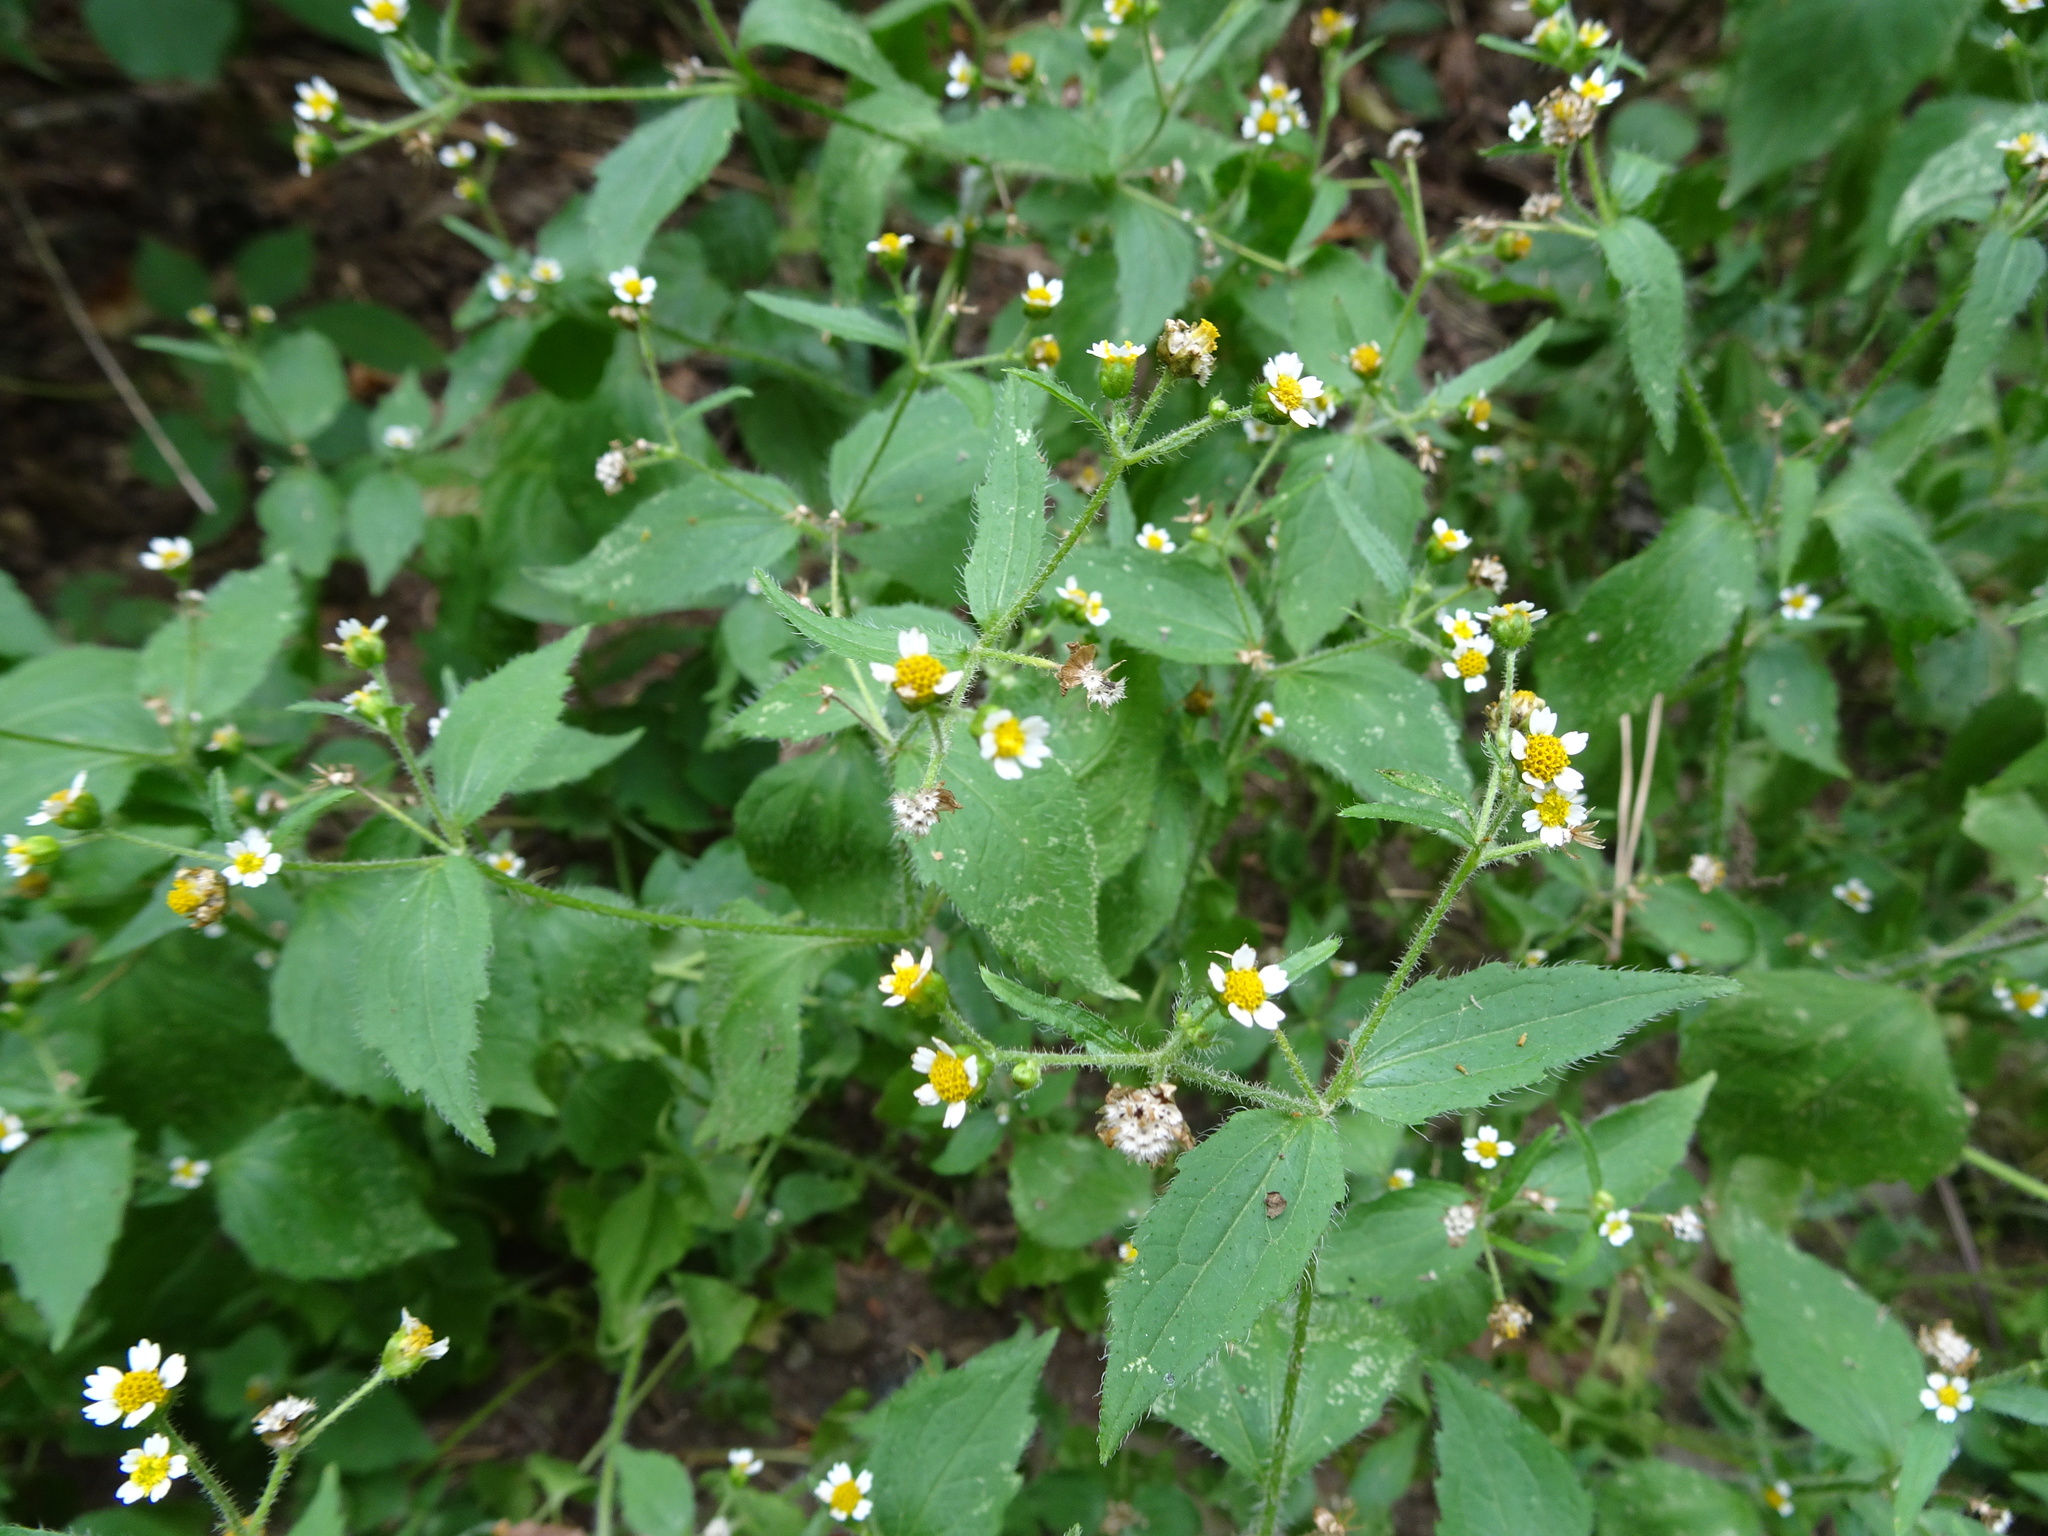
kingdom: Plantae
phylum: Tracheophyta
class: Magnoliopsida
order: Asterales
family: Asteraceae
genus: Galinsoga
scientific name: Galinsoga quadriradiata
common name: Shaggy soldier
